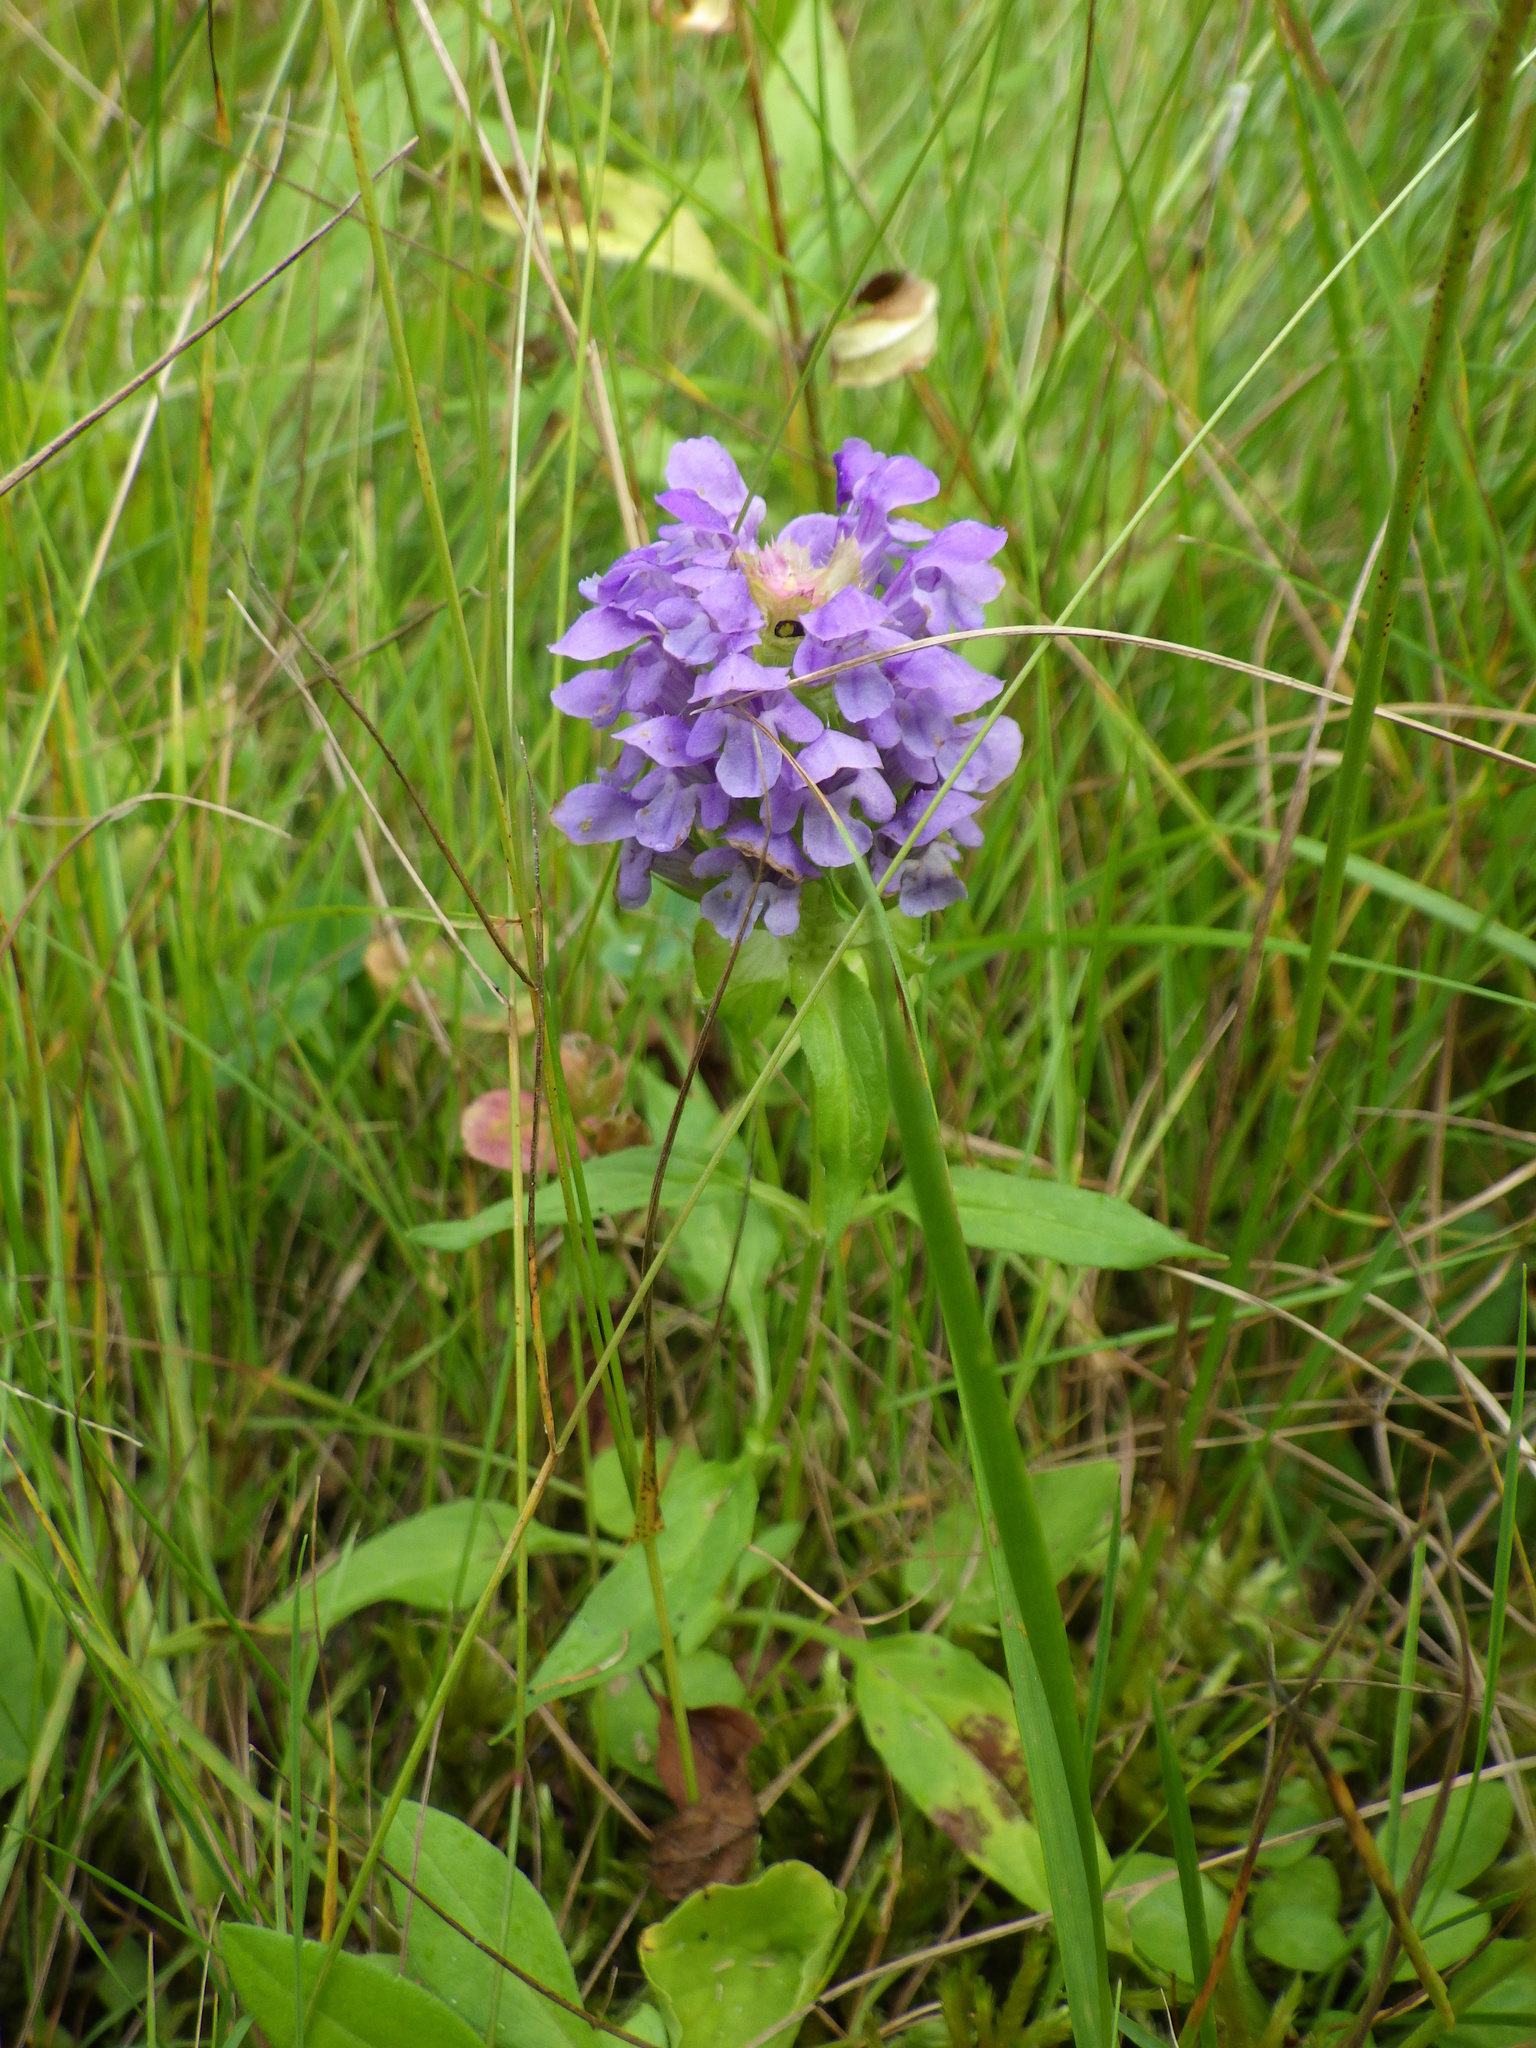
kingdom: Plantae
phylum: Tracheophyta
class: Magnoliopsida
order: Lamiales
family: Lamiaceae
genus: Prunella
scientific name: Prunella vulgaris
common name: Heal-all
